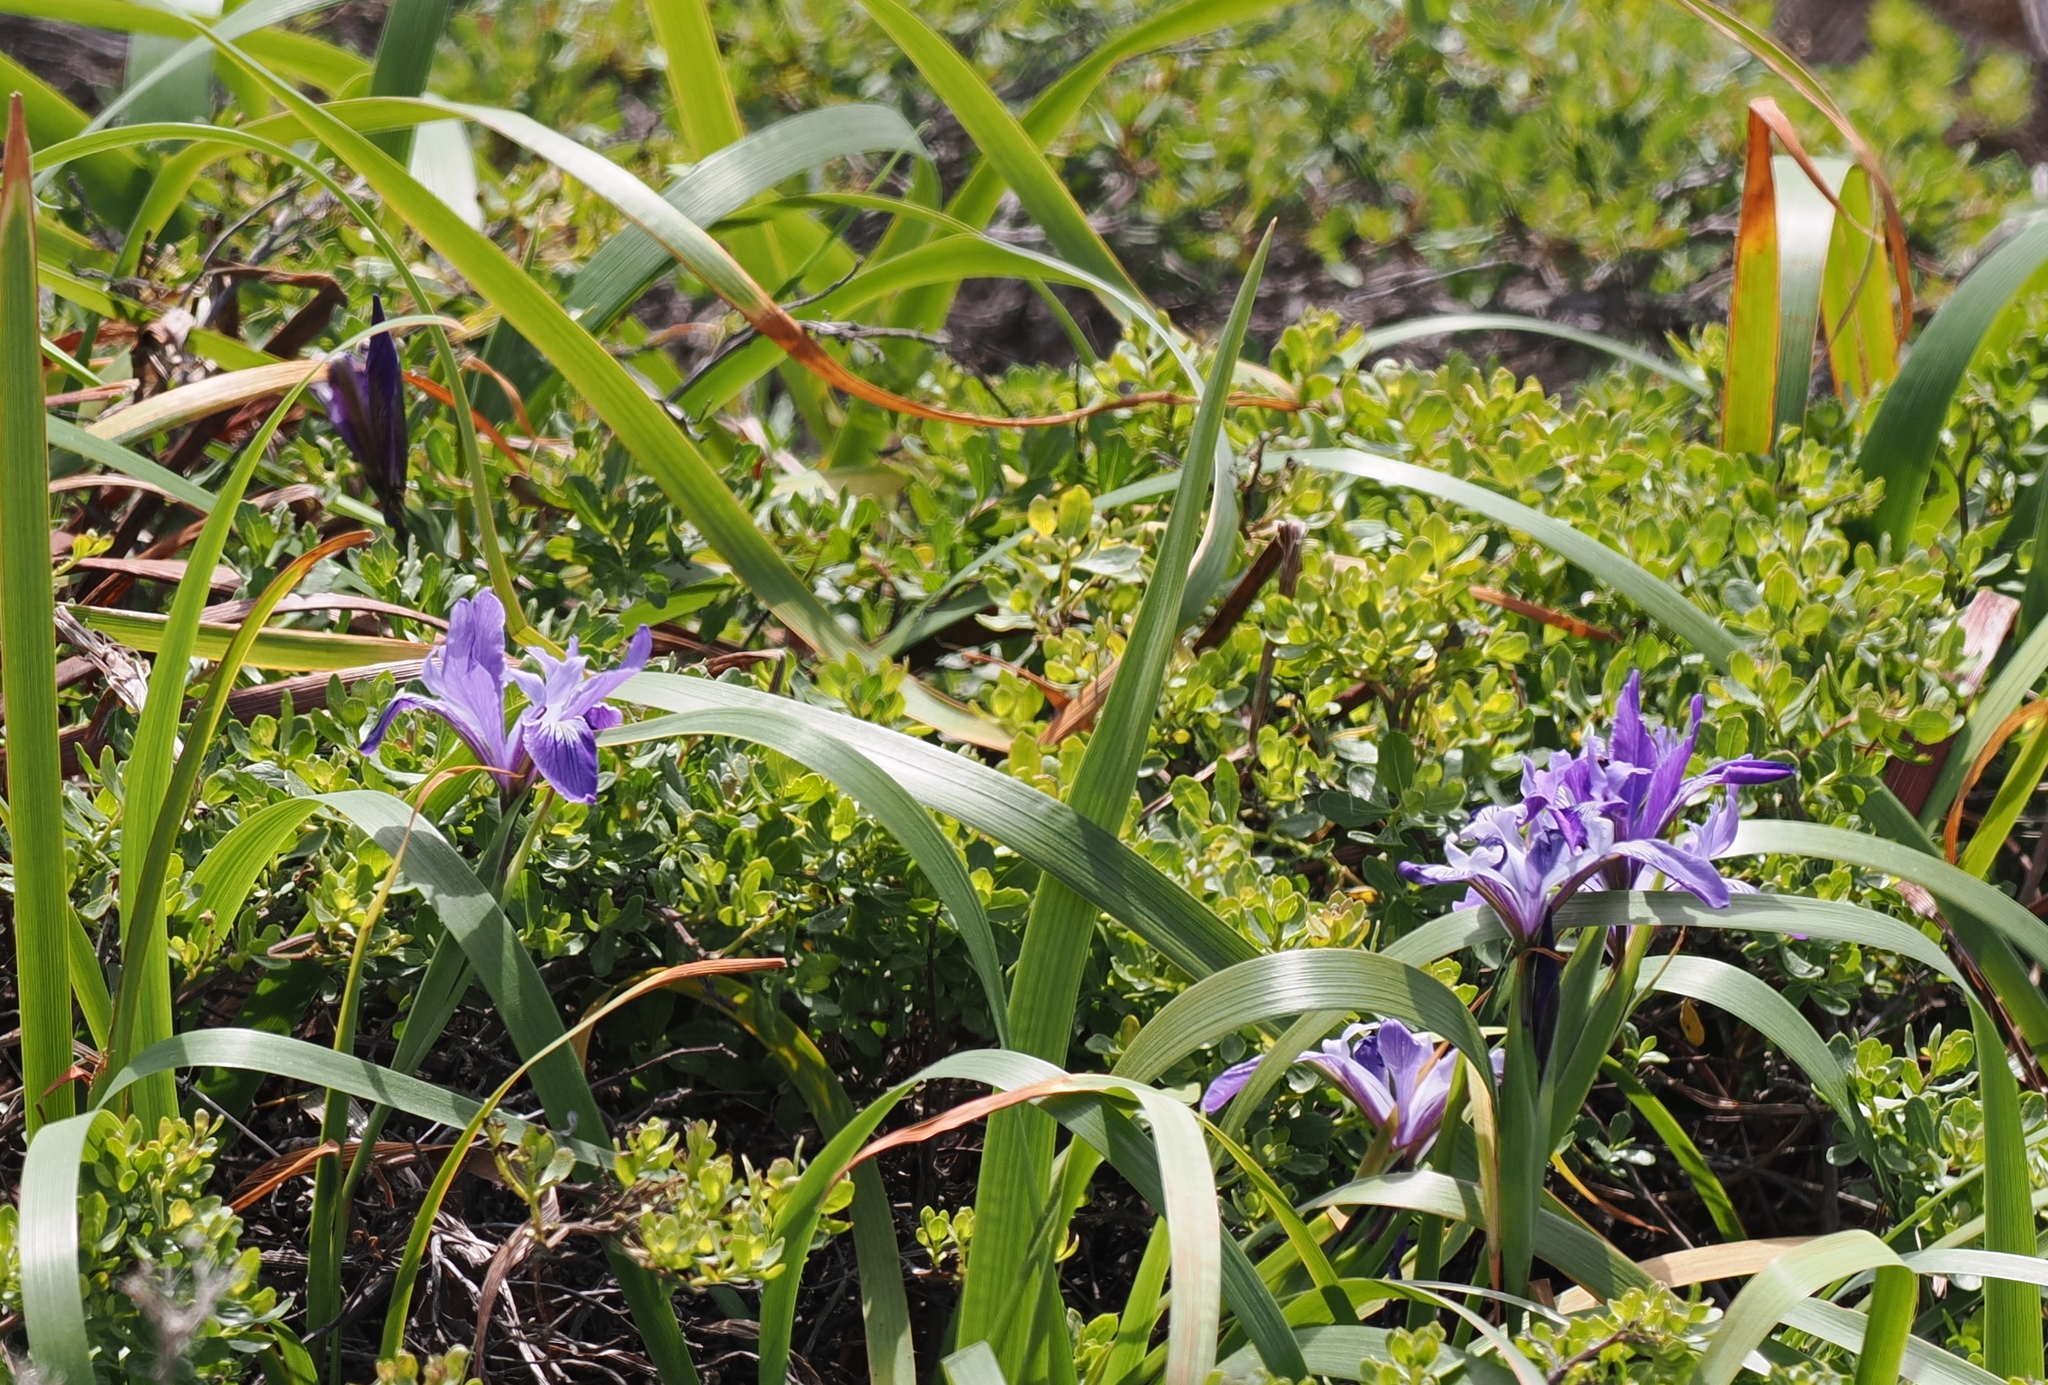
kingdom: Plantae
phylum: Tracheophyta
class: Liliopsida
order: Asparagales
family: Iridaceae
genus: Iris
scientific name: Iris douglasiana
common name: Marin iris
